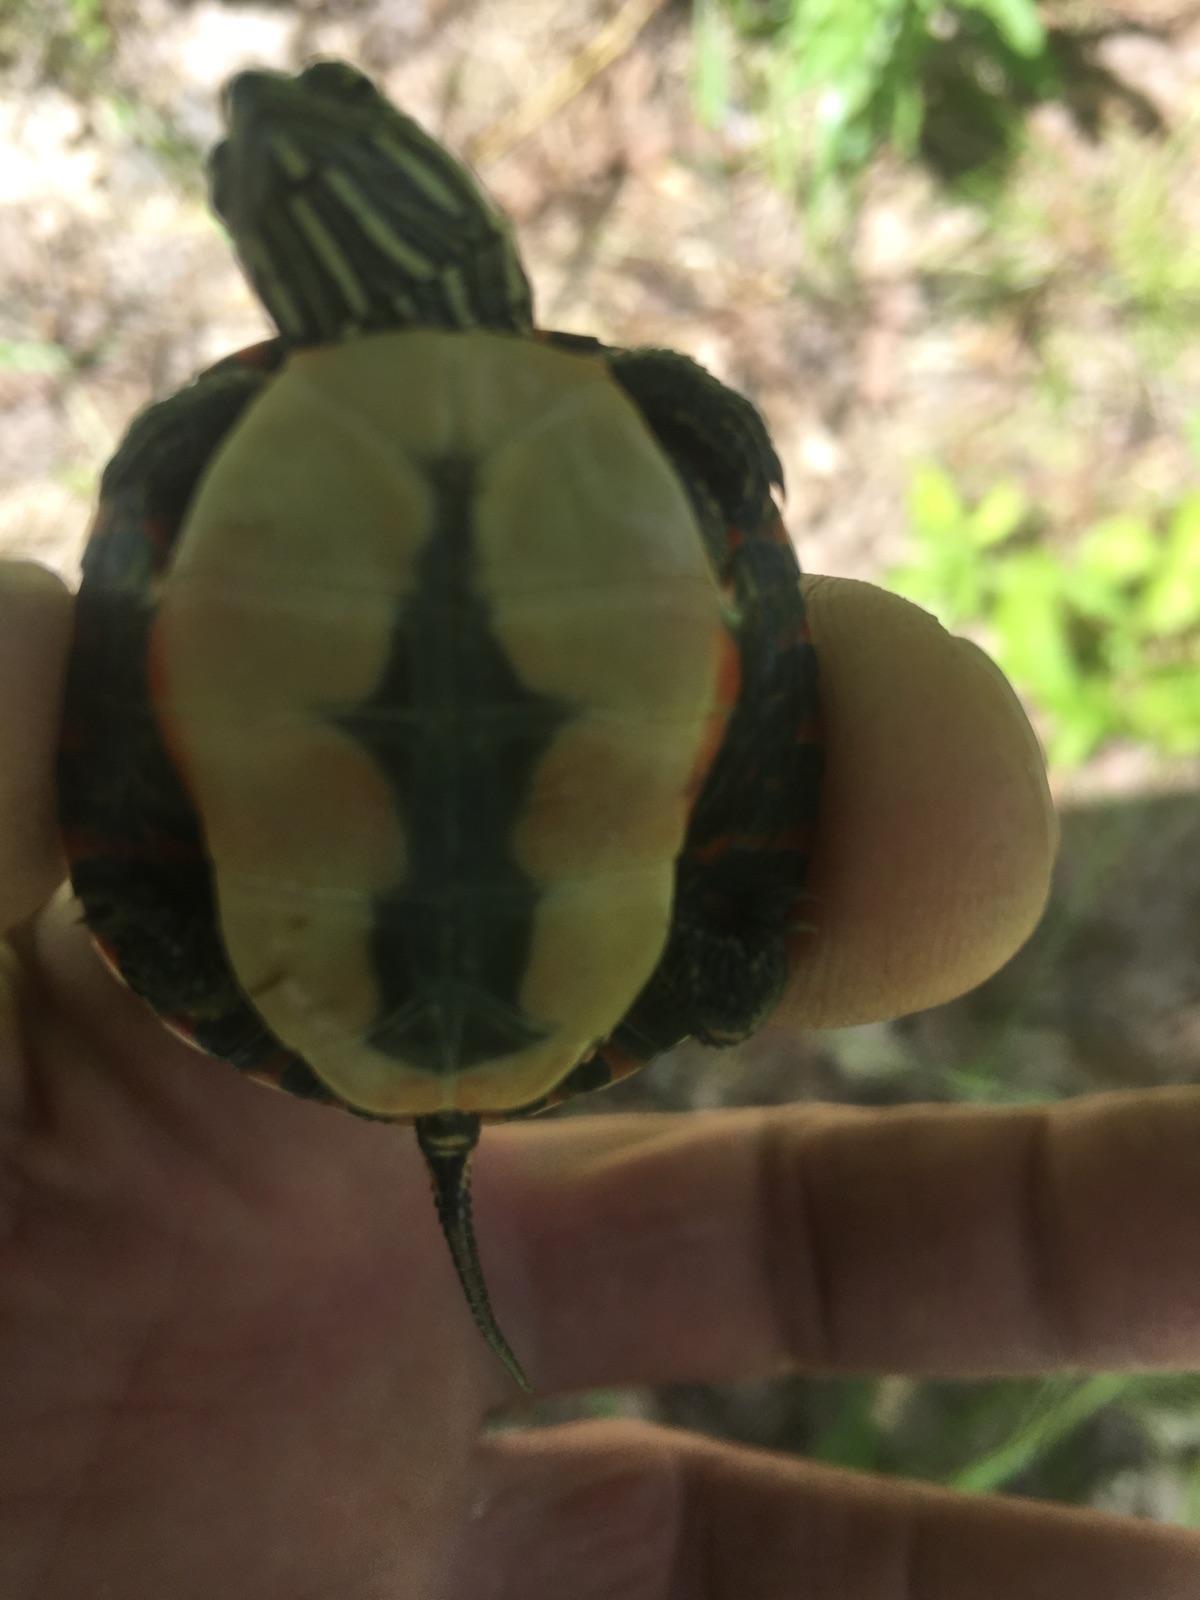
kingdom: Animalia
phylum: Chordata
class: Testudines
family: Emydidae
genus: Chrysemys
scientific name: Chrysemys picta
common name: Painted turtle
